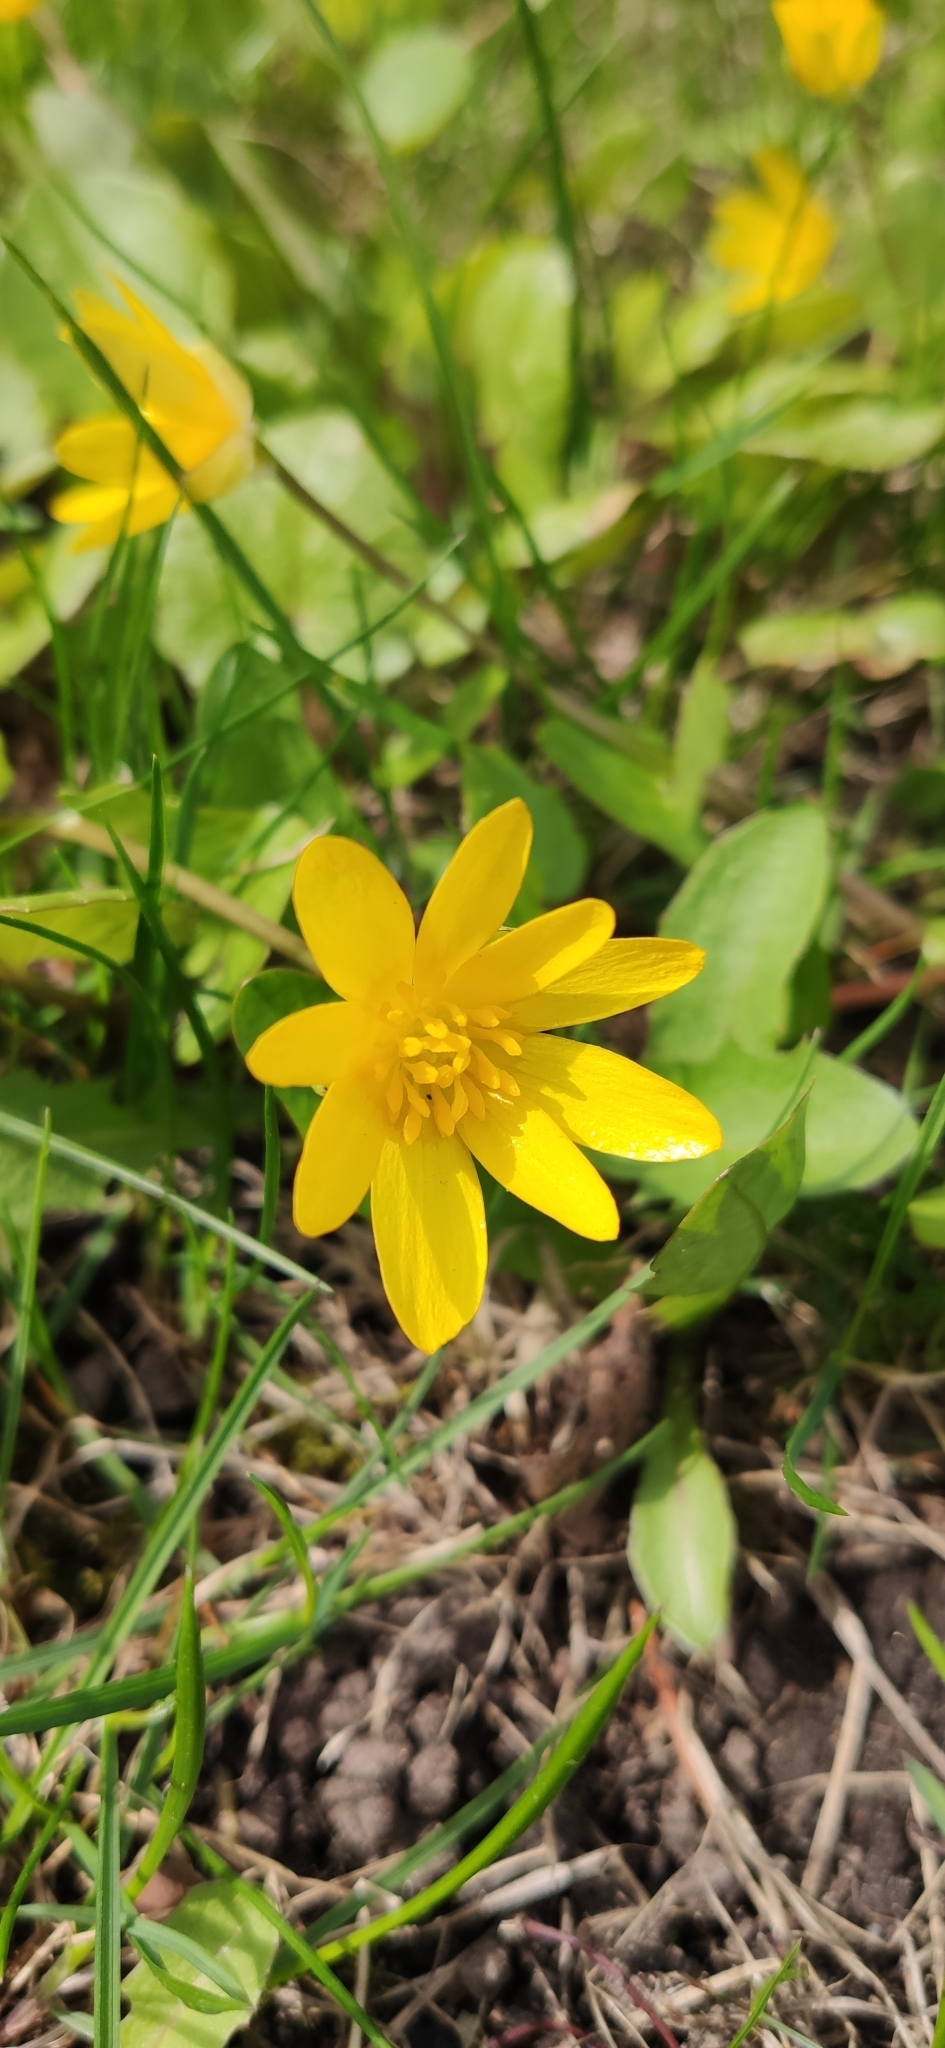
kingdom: Plantae
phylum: Tracheophyta
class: Magnoliopsida
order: Ranunculales
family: Ranunculaceae
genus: Ficaria
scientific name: Ficaria verna
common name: Lesser celandine
